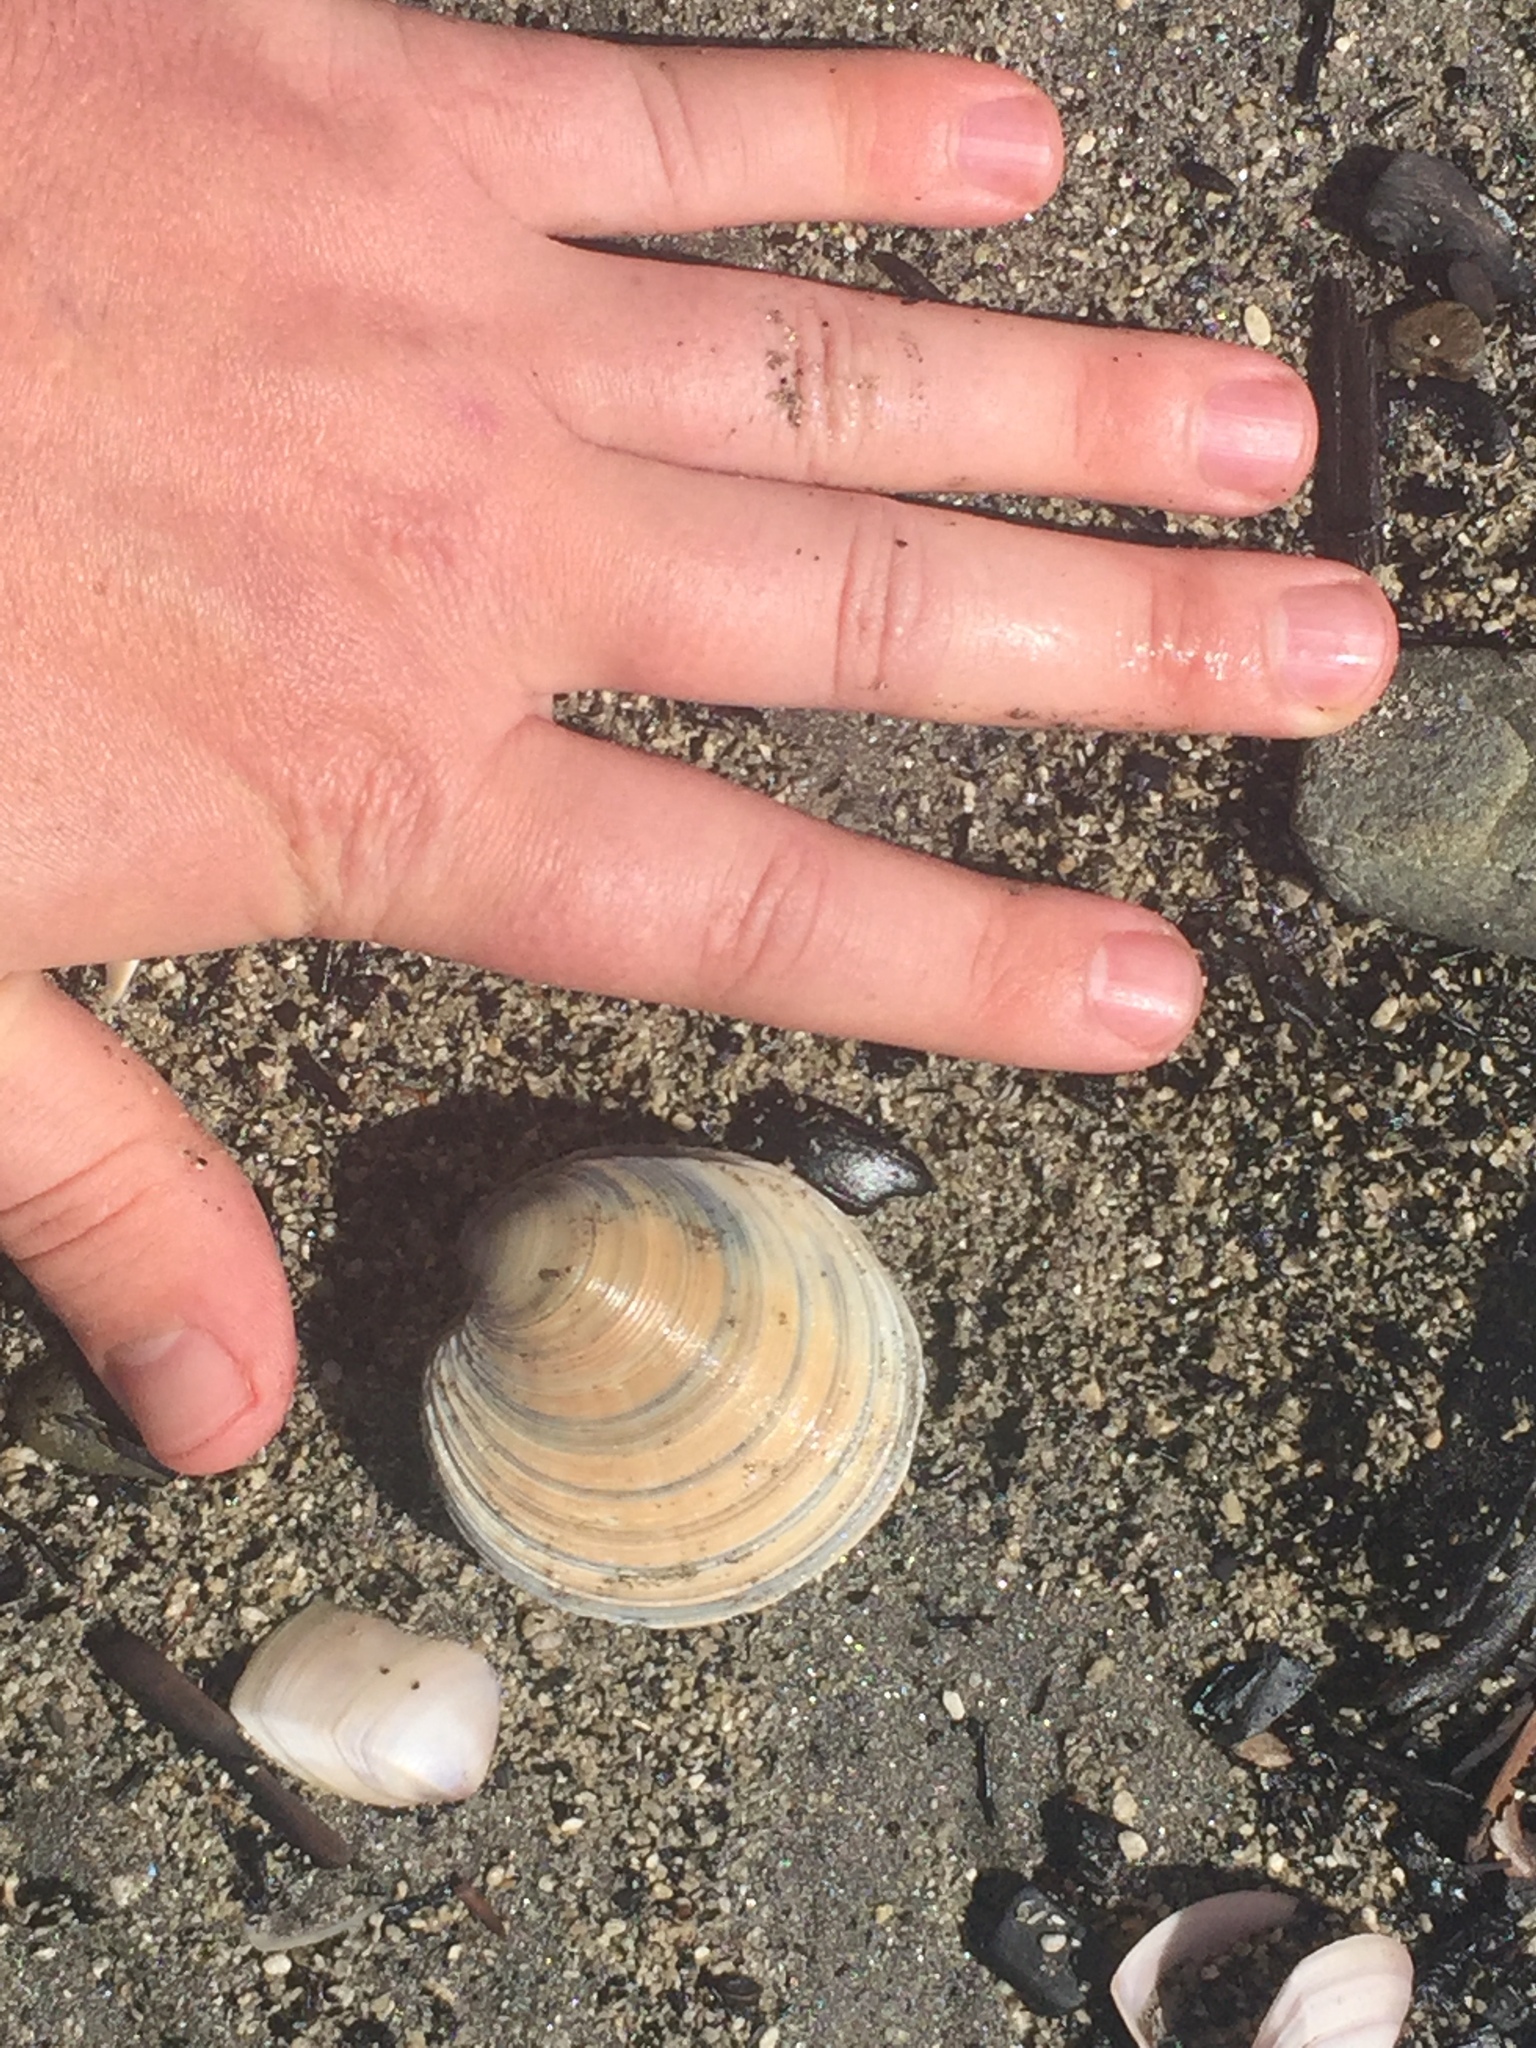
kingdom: Animalia
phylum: Mollusca
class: Bivalvia
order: Venerida
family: Veneridae
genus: Dosinia
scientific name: Dosinia anus
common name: Old-woman dosinia
